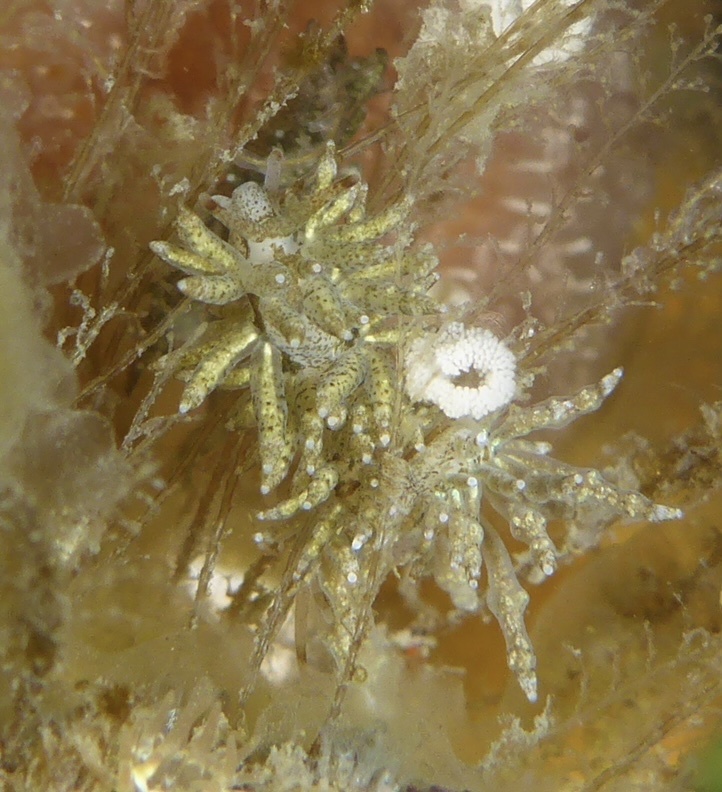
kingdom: Animalia
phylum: Mollusca
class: Gastropoda
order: Nudibranchia
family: Eubranchidae
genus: Eubranchus
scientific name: Eubranchus rustyus
